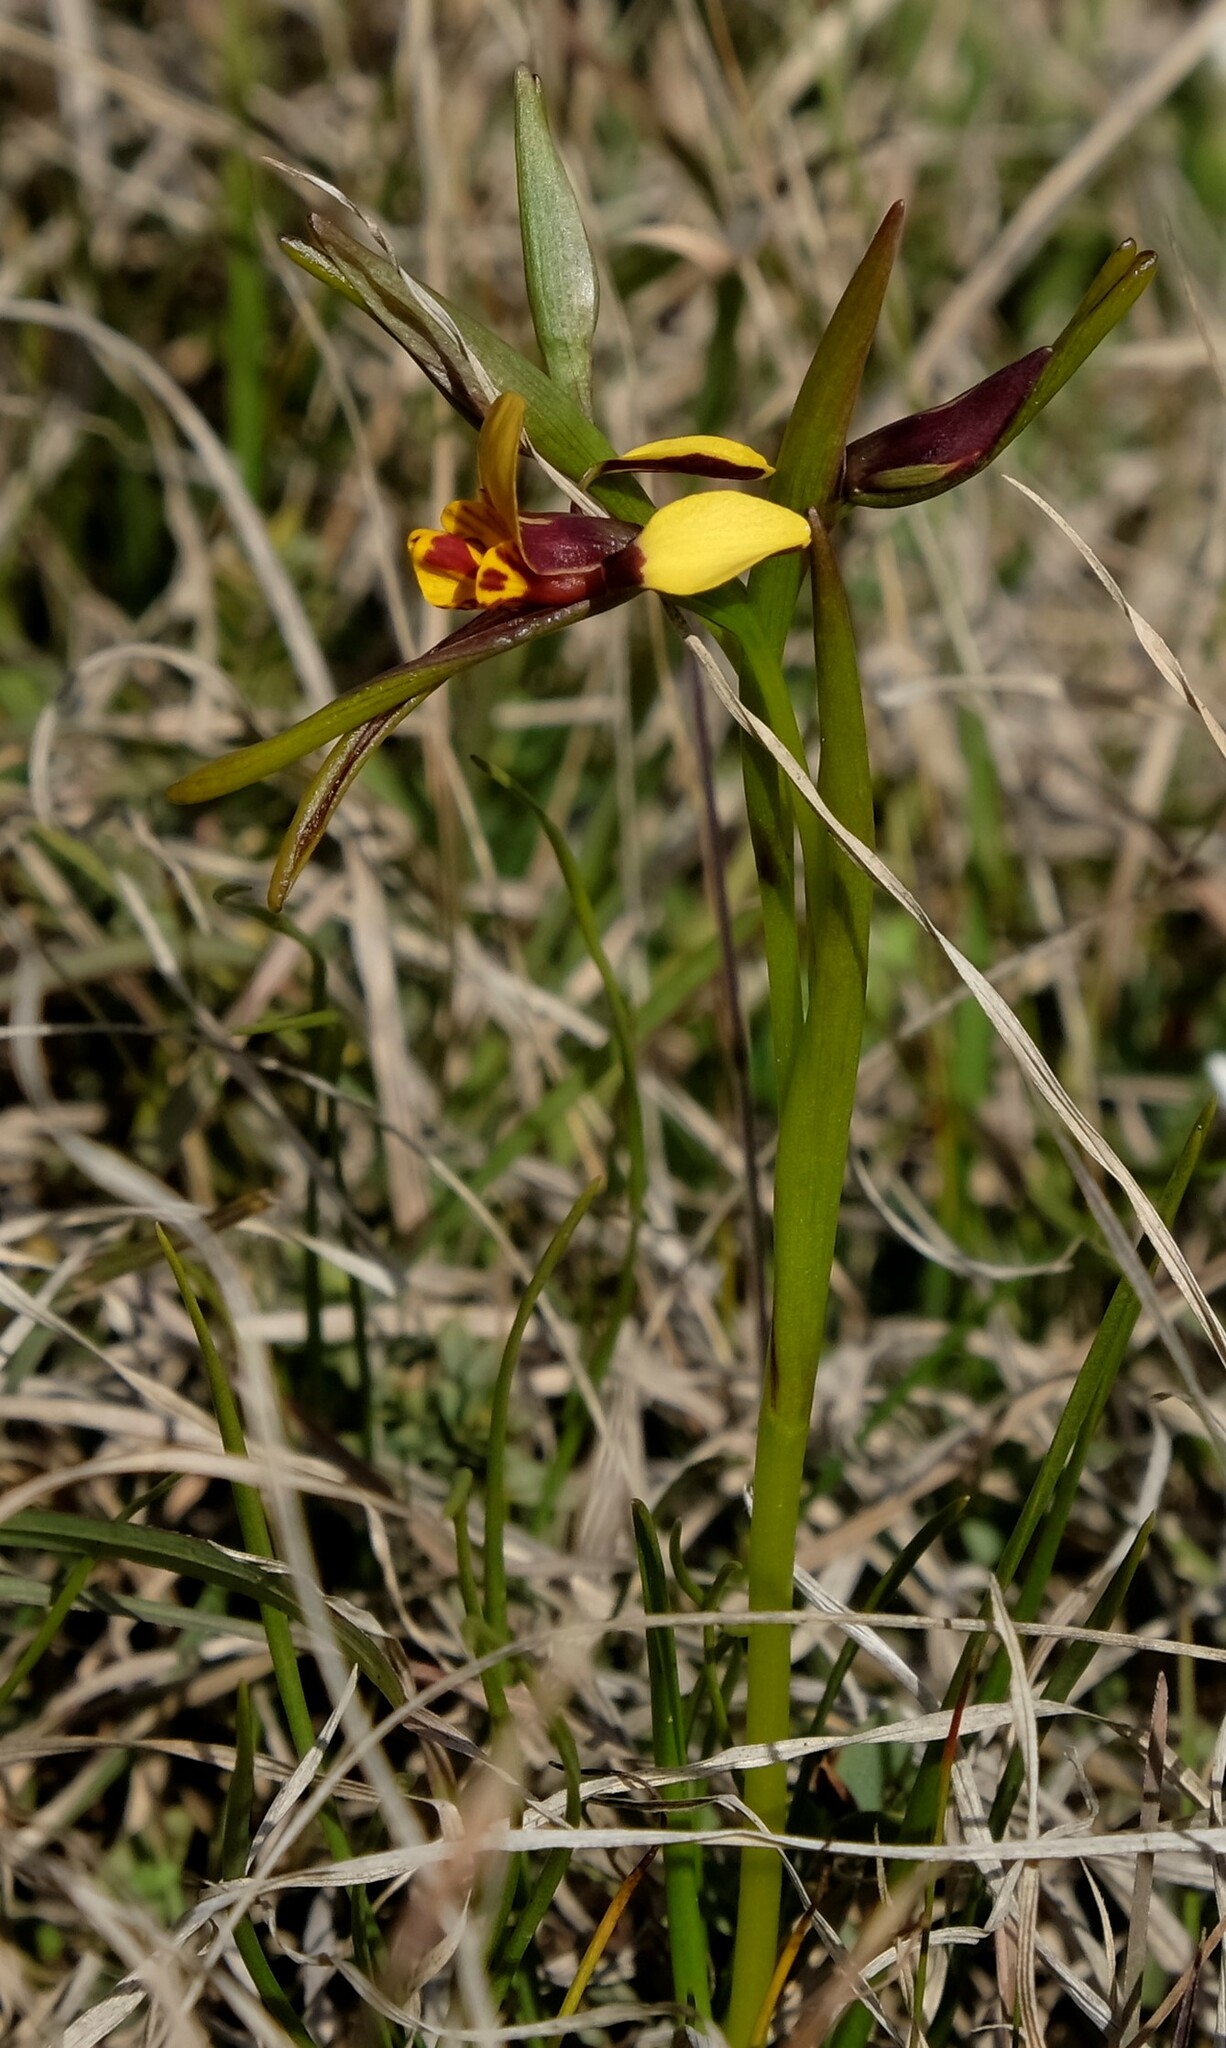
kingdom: Plantae
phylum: Tracheophyta
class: Liliopsida
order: Asparagales
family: Orchidaceae
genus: Diuris
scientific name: Diuris palustris
